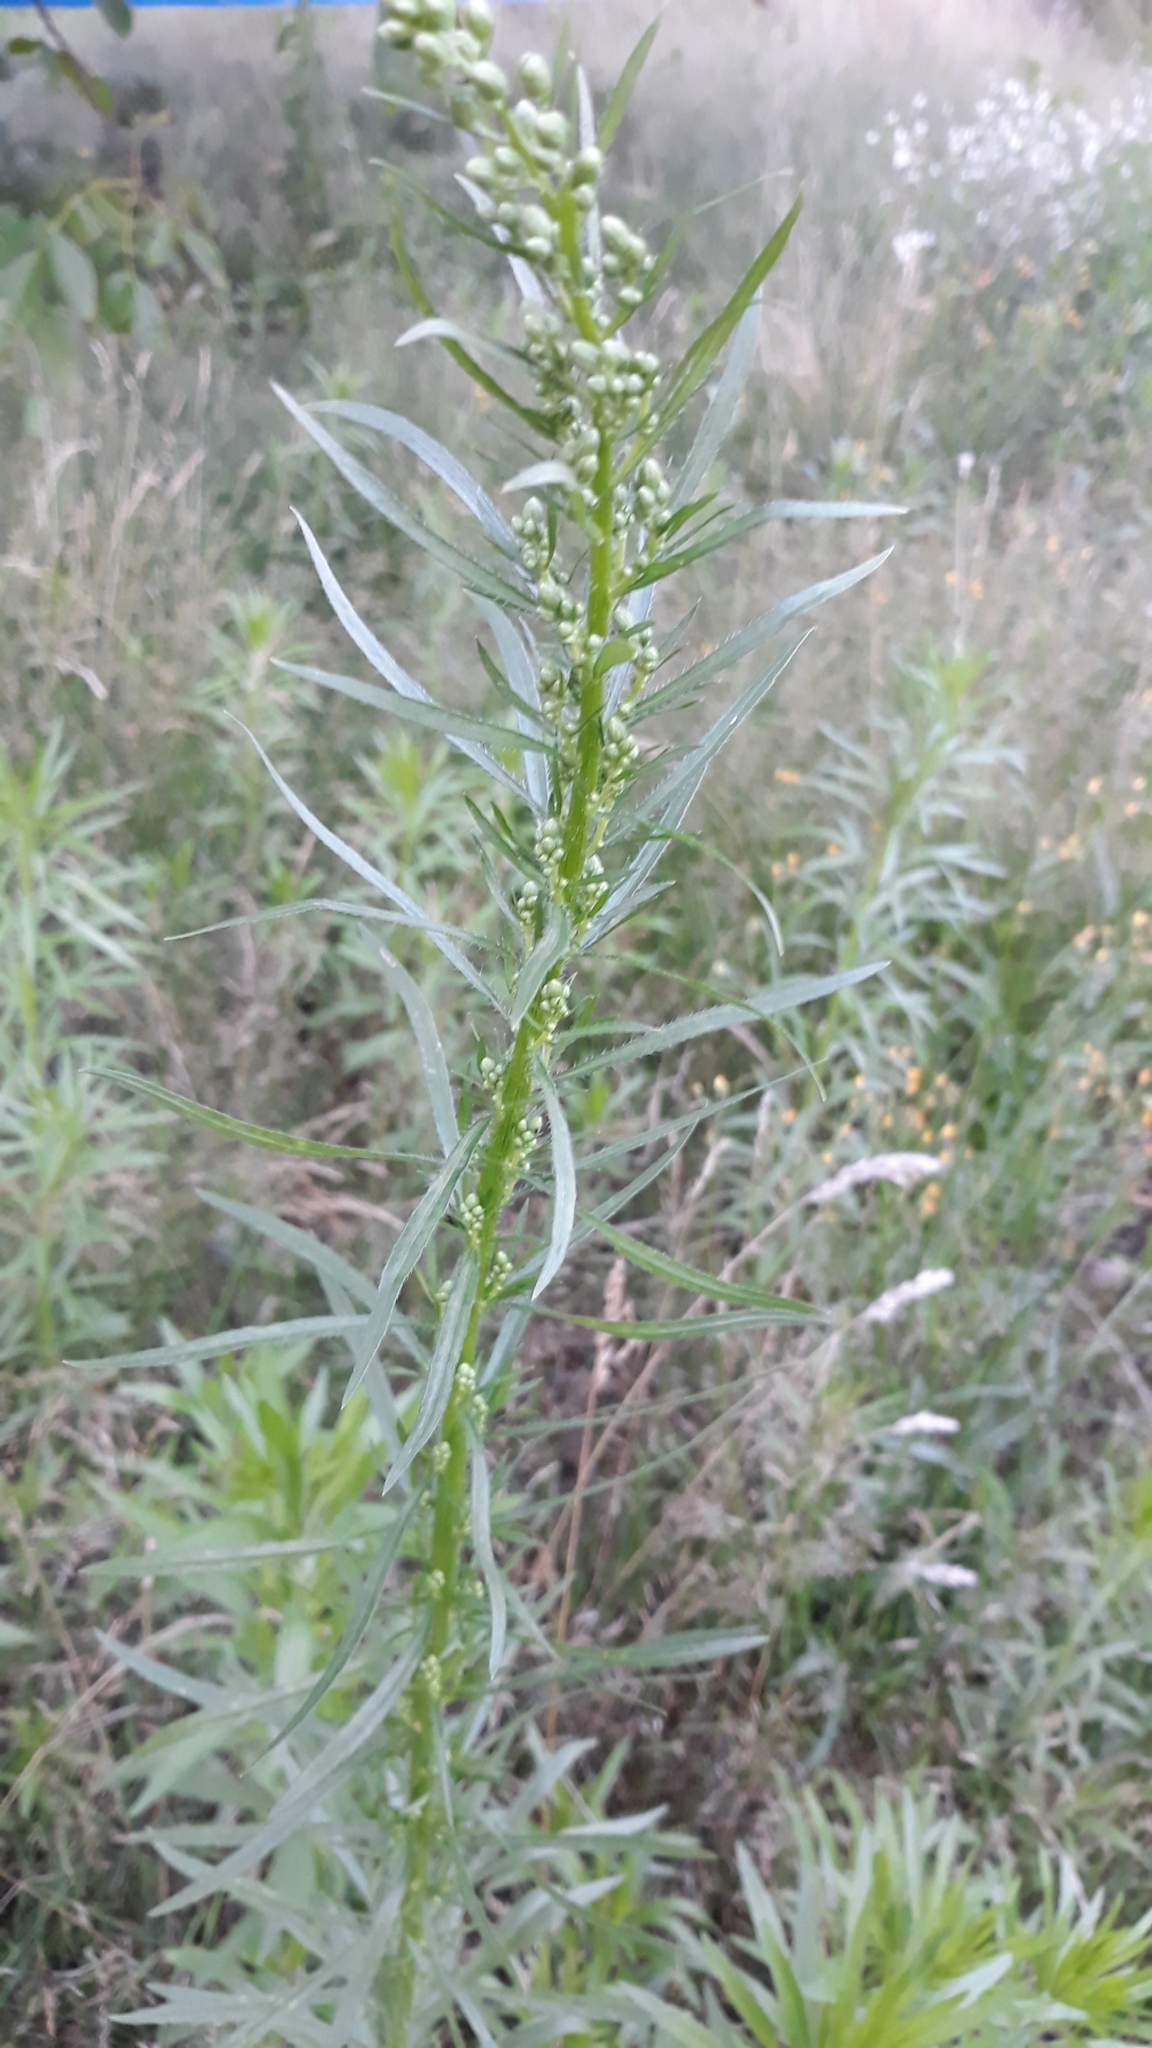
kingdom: Plantae
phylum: Tracheophyta
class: Magnoliopsida
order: Asterales
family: Asteraceae
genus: Erigeron
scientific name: Erigeron canadensis
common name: Canadian fleabane
